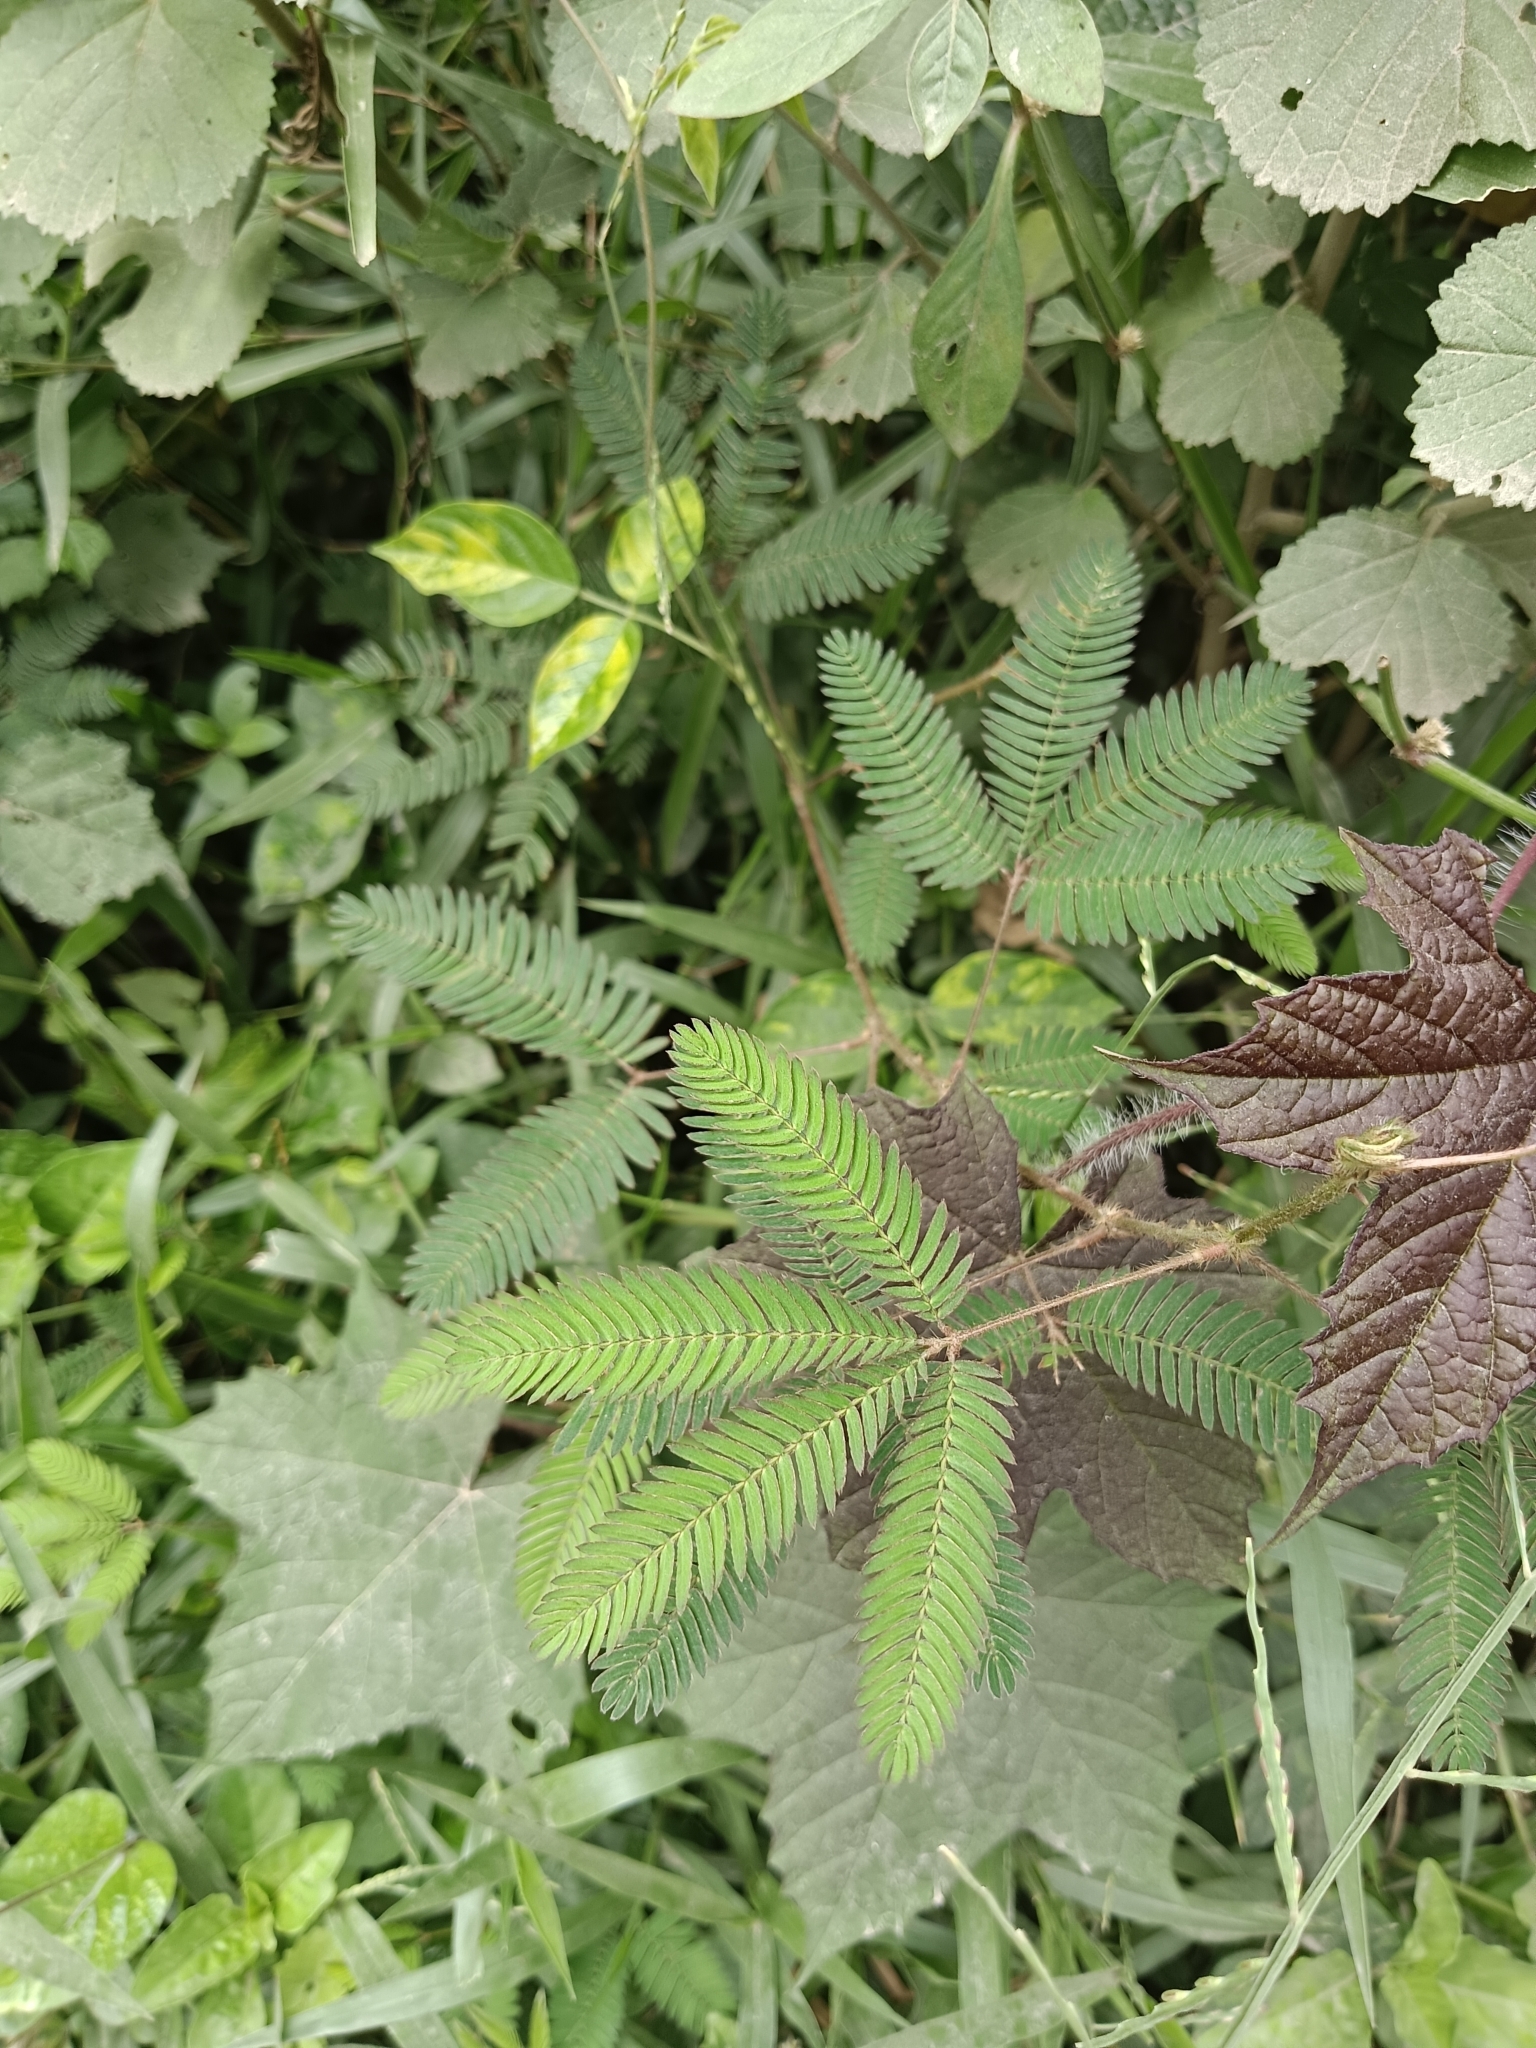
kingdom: Plantae
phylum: Tracheophyta
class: Magnoliopsida
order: Fabales
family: Fabaceae
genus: Mimosa
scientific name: Mimosa pudica
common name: Sensitive plant
